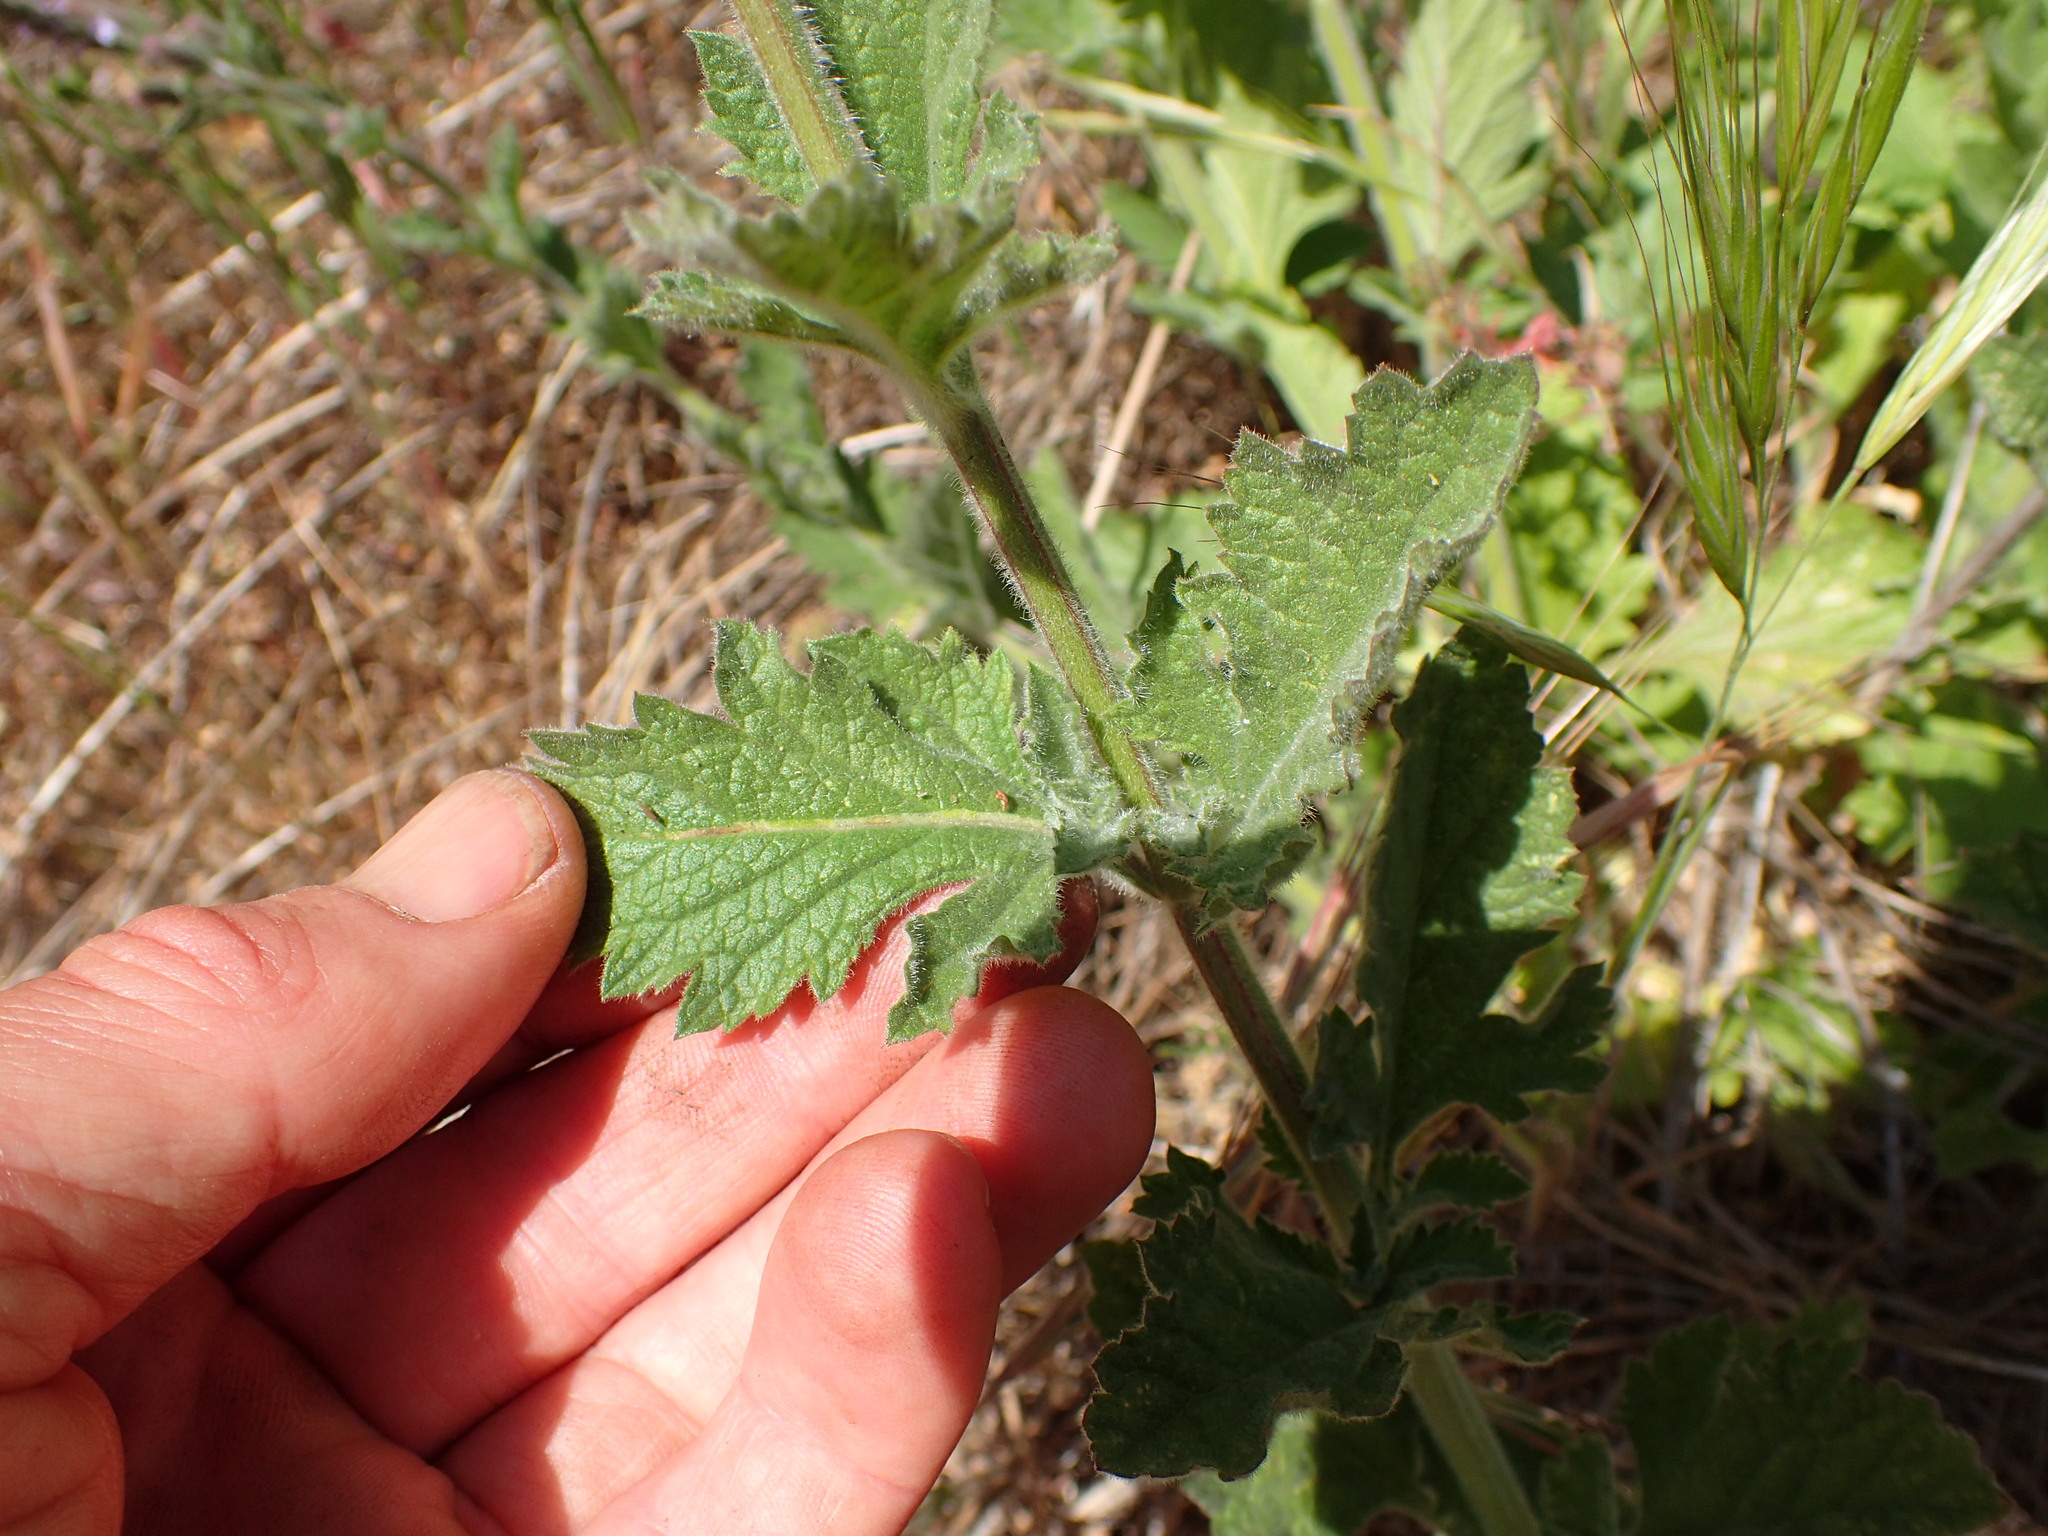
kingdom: Plantae
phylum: Tracheophyta
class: Magnoliopsida
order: Lamiales
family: Verbenaceae
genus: Verbena
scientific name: Verbena lasiostachys
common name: Vervain
